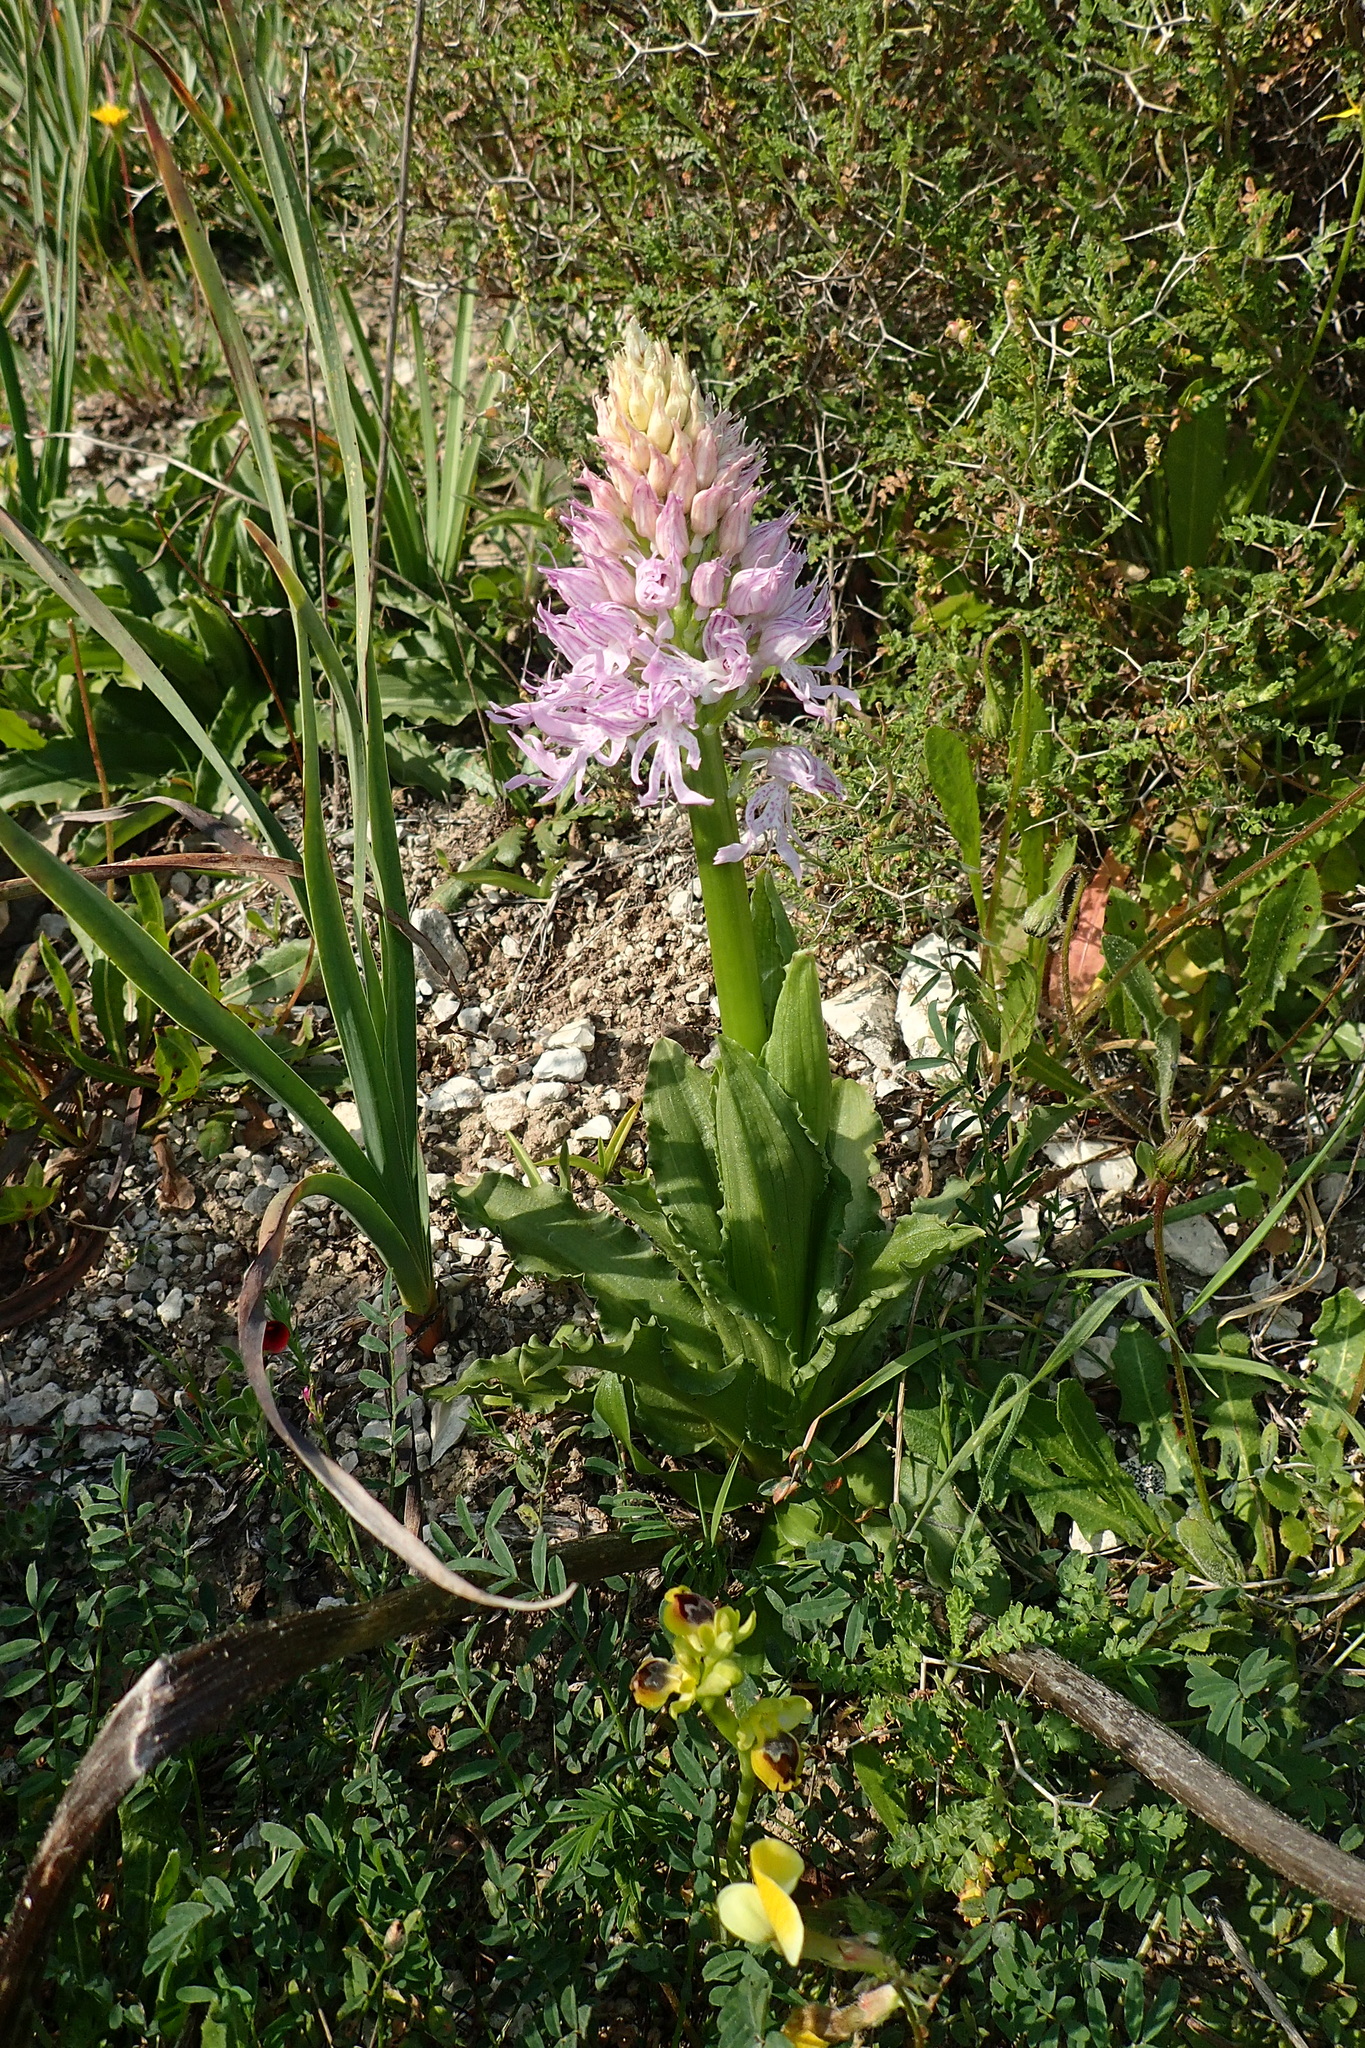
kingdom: Plantae
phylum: Tracheophyta
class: Liliopsida
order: Asparagales
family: Orchidaceae
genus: Orchis
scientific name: Orchis italica
